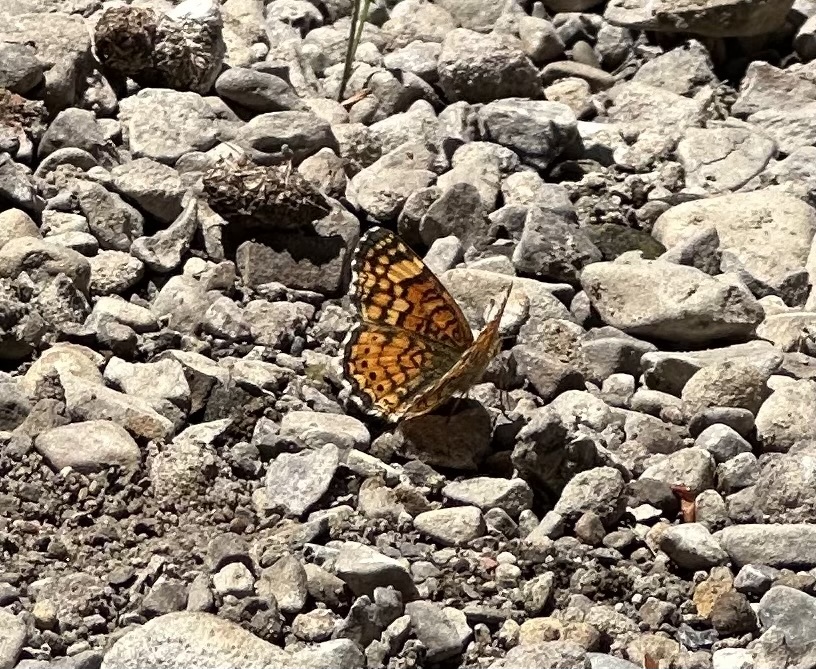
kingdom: Animalia
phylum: Arthropoda
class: Insecta
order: Lepidoptera
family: Nymphalidae
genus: Eresia
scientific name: Eresia aveyrona
